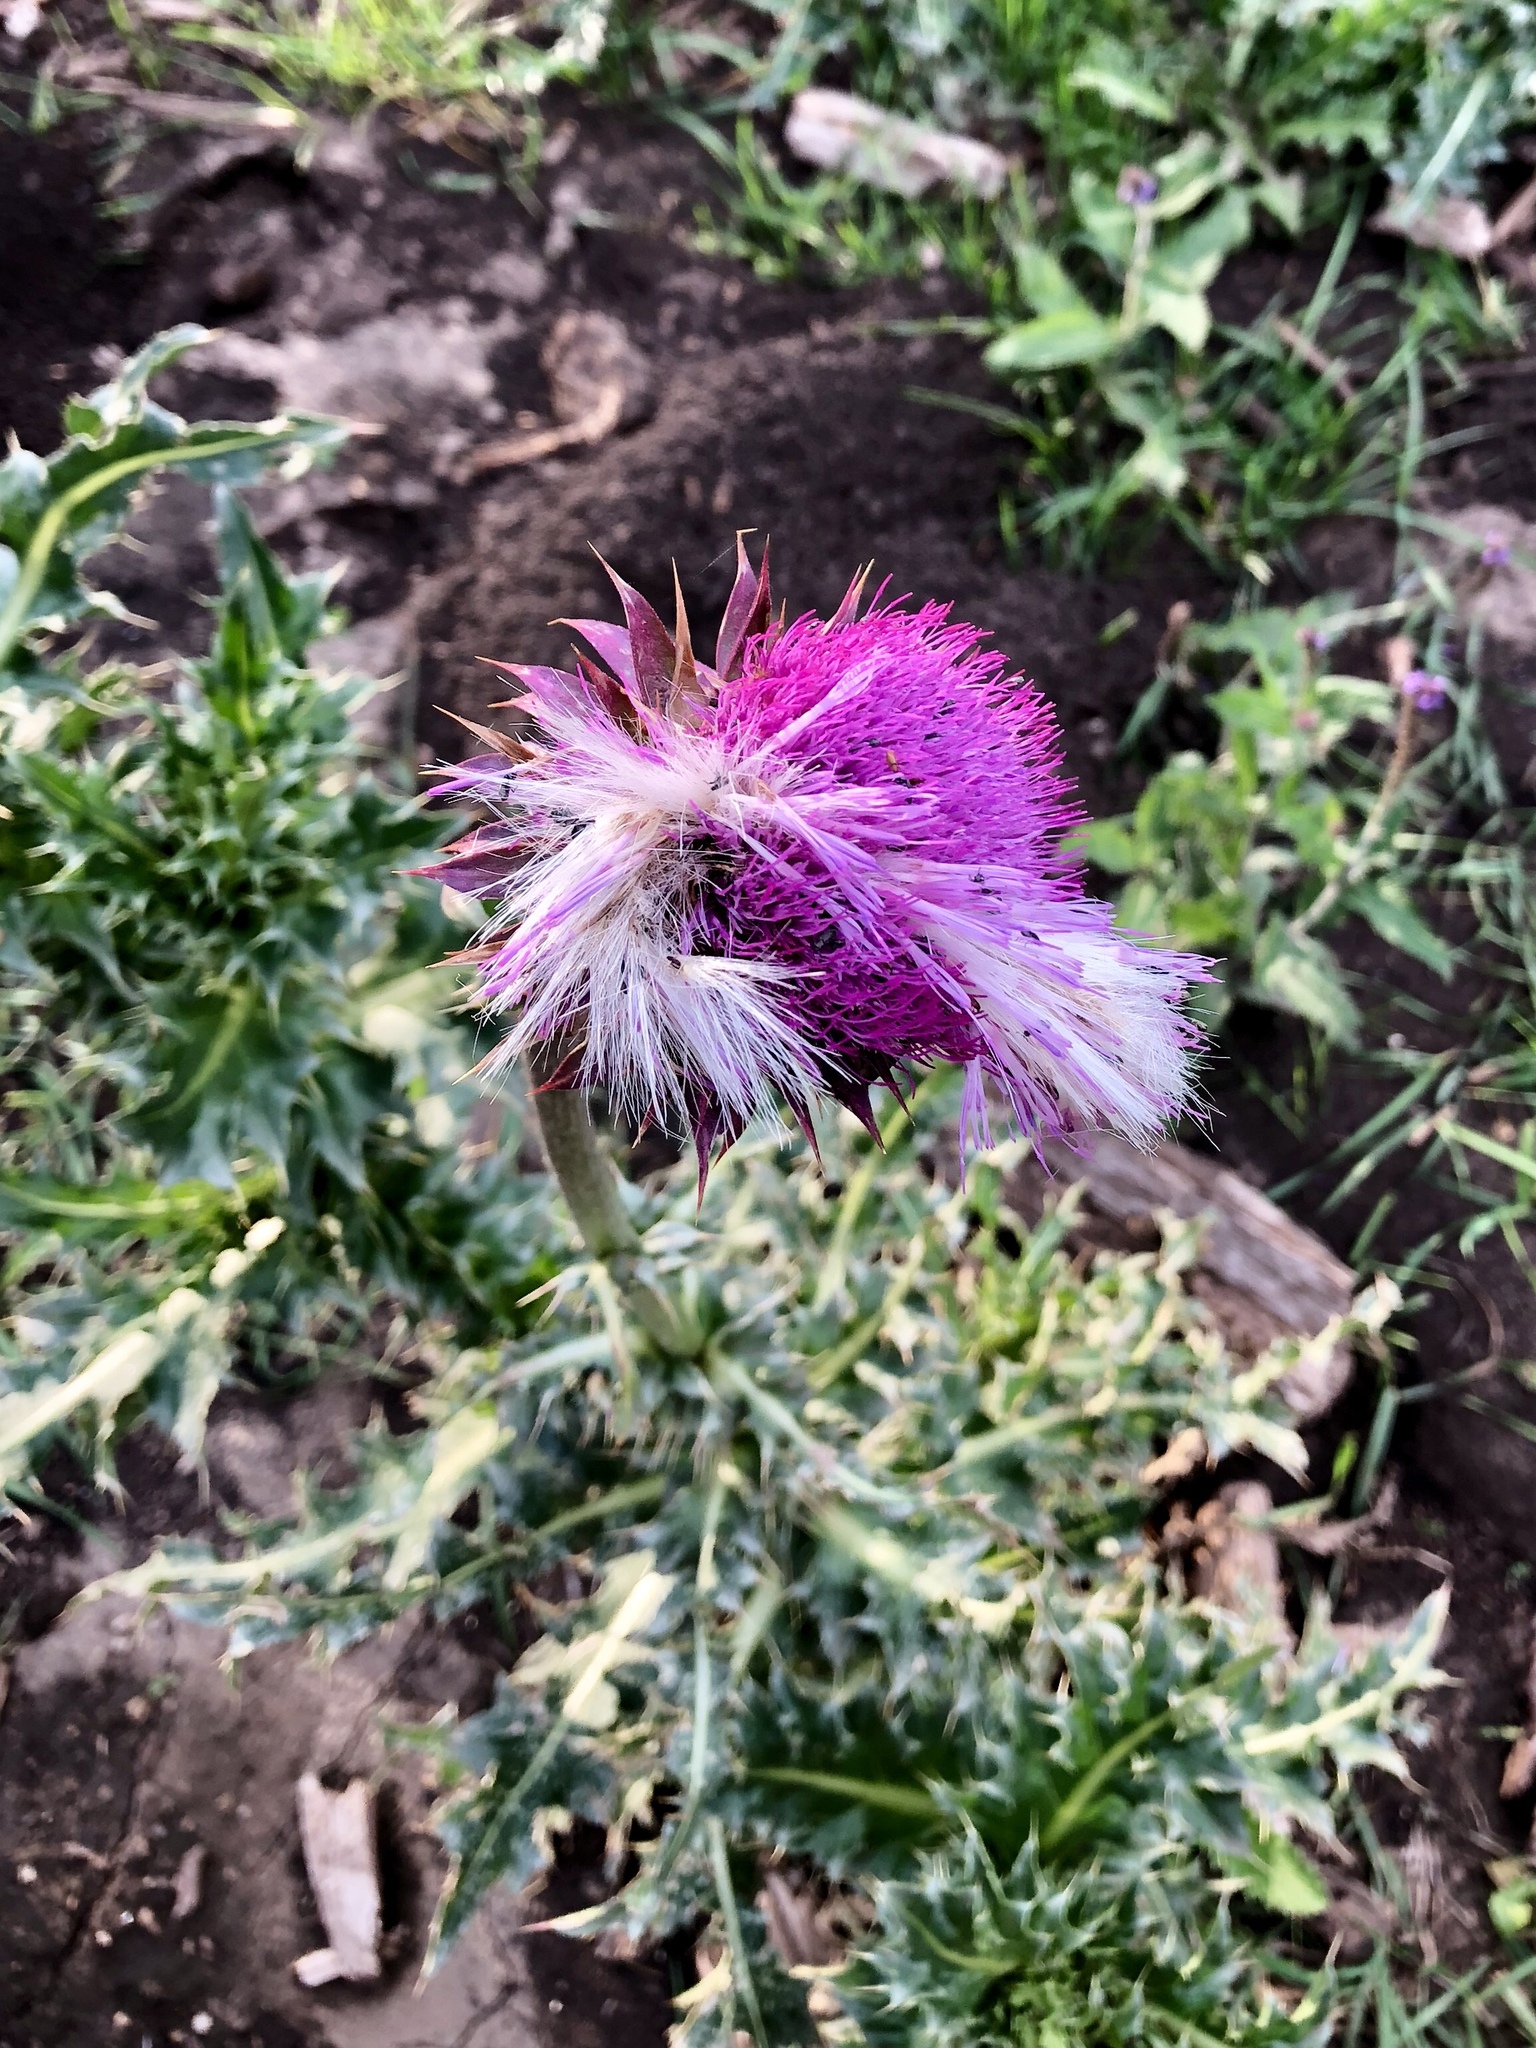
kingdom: Plantae
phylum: Tracheophyta
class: Magnoliopsida
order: Asterales
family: Asteraceae
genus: Carduus
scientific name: Carduus nutans
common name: Musk thistle
